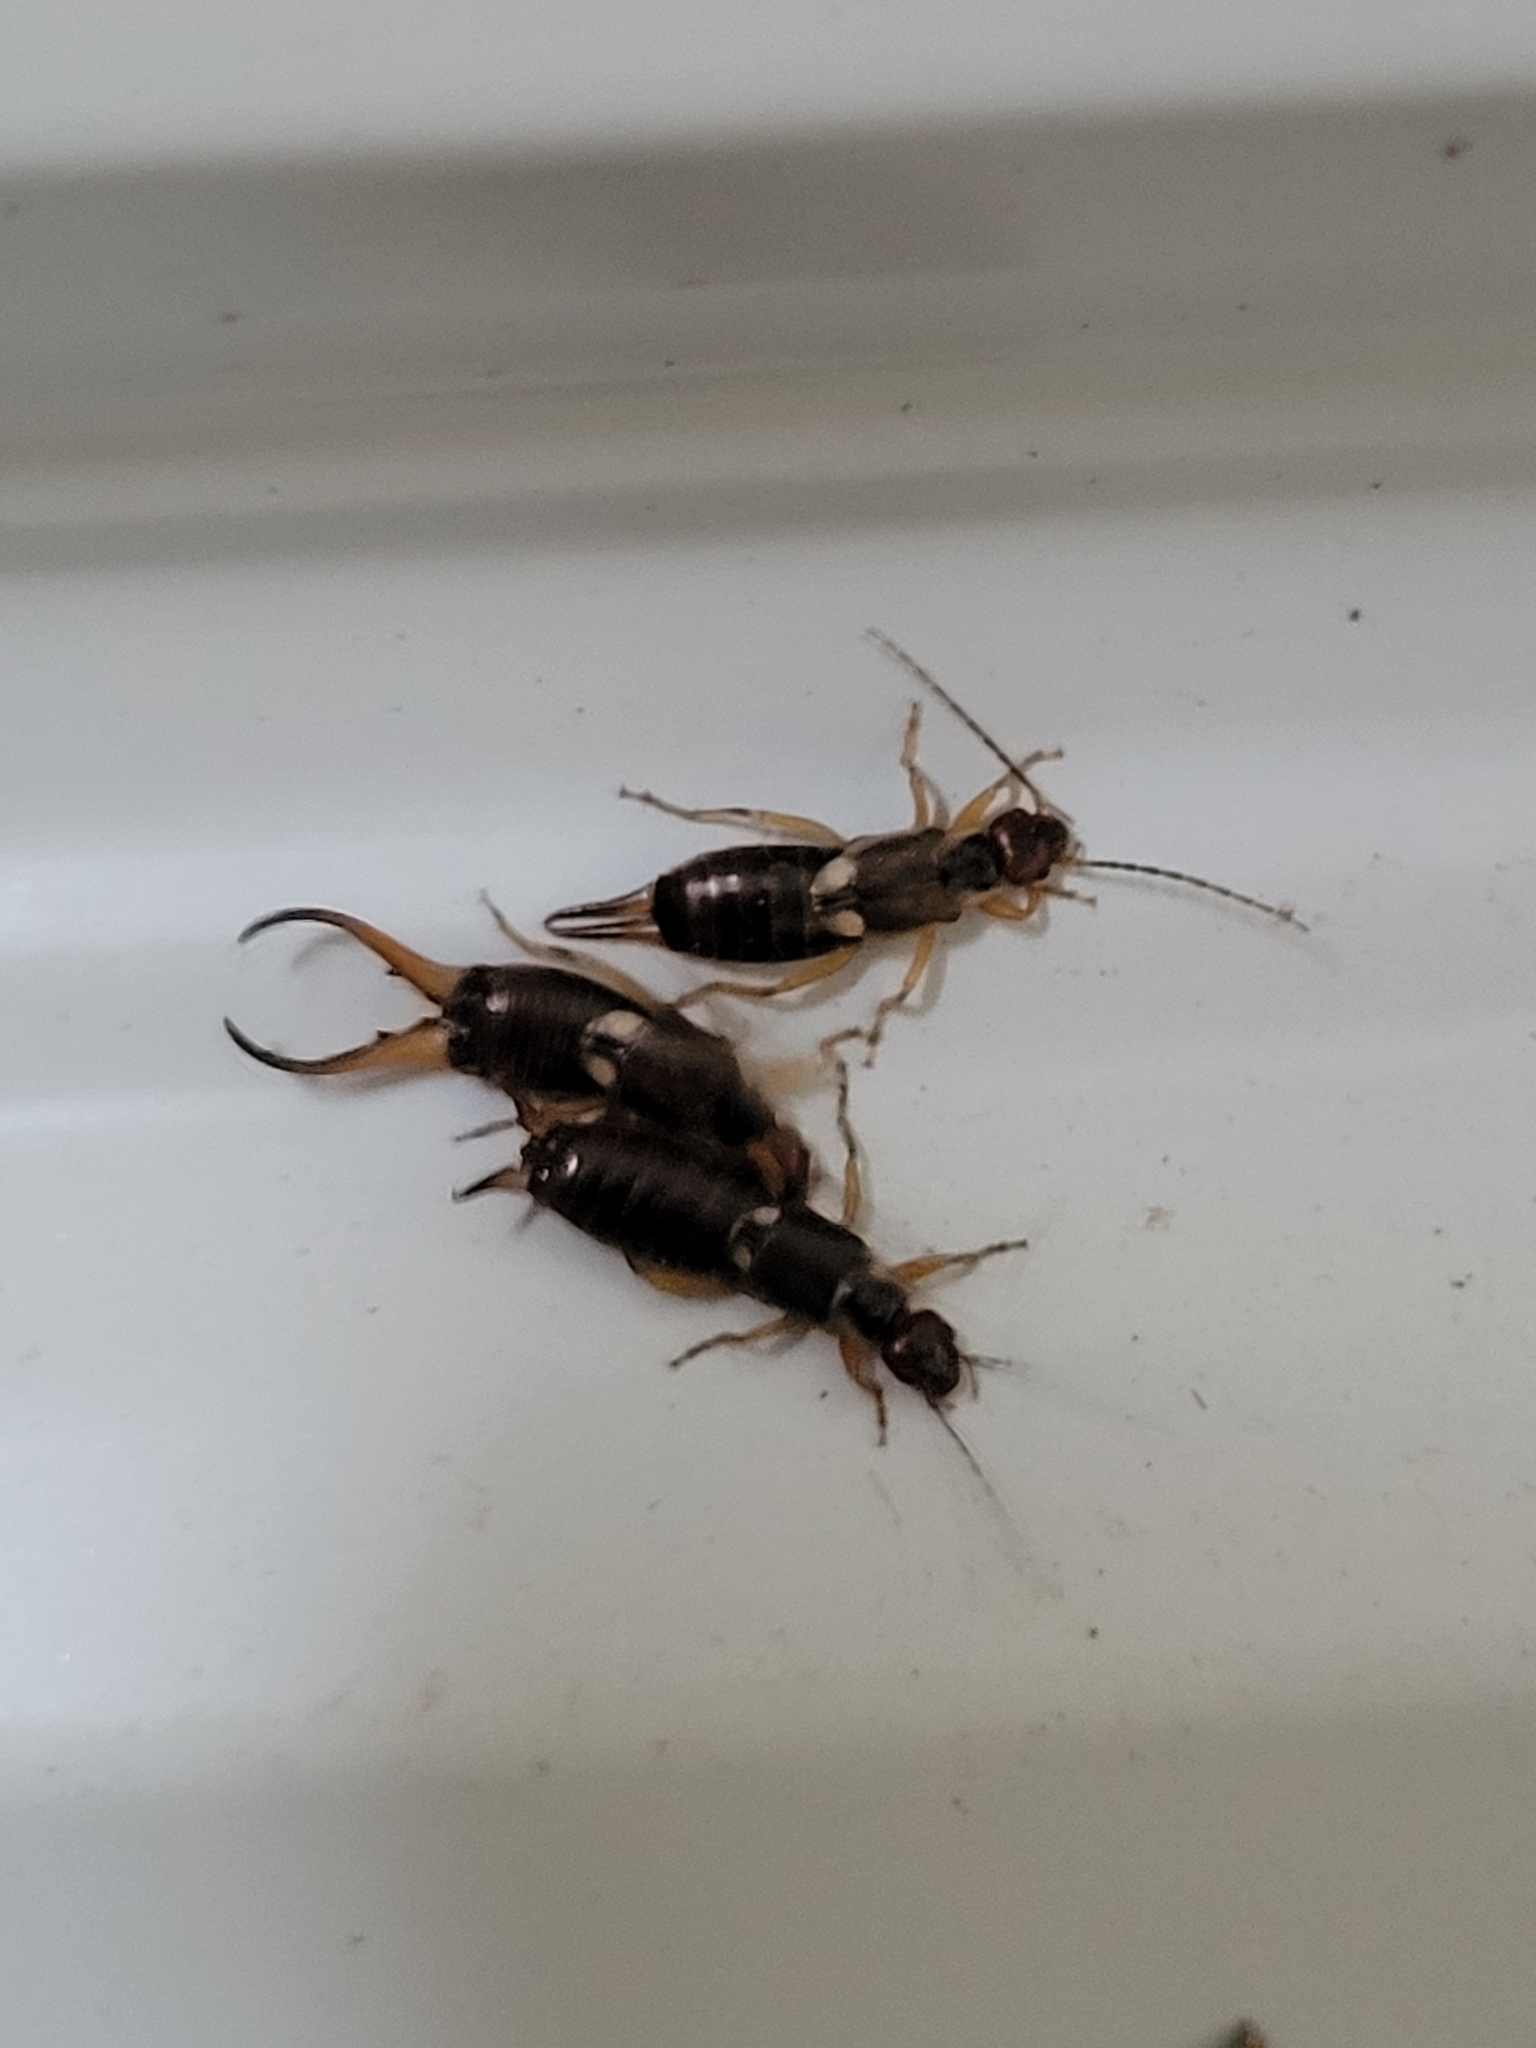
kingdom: Animalia
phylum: Arthropoda
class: Insecta
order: Dermaptera
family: Forficulidae
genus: Forficula
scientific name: Forficula
